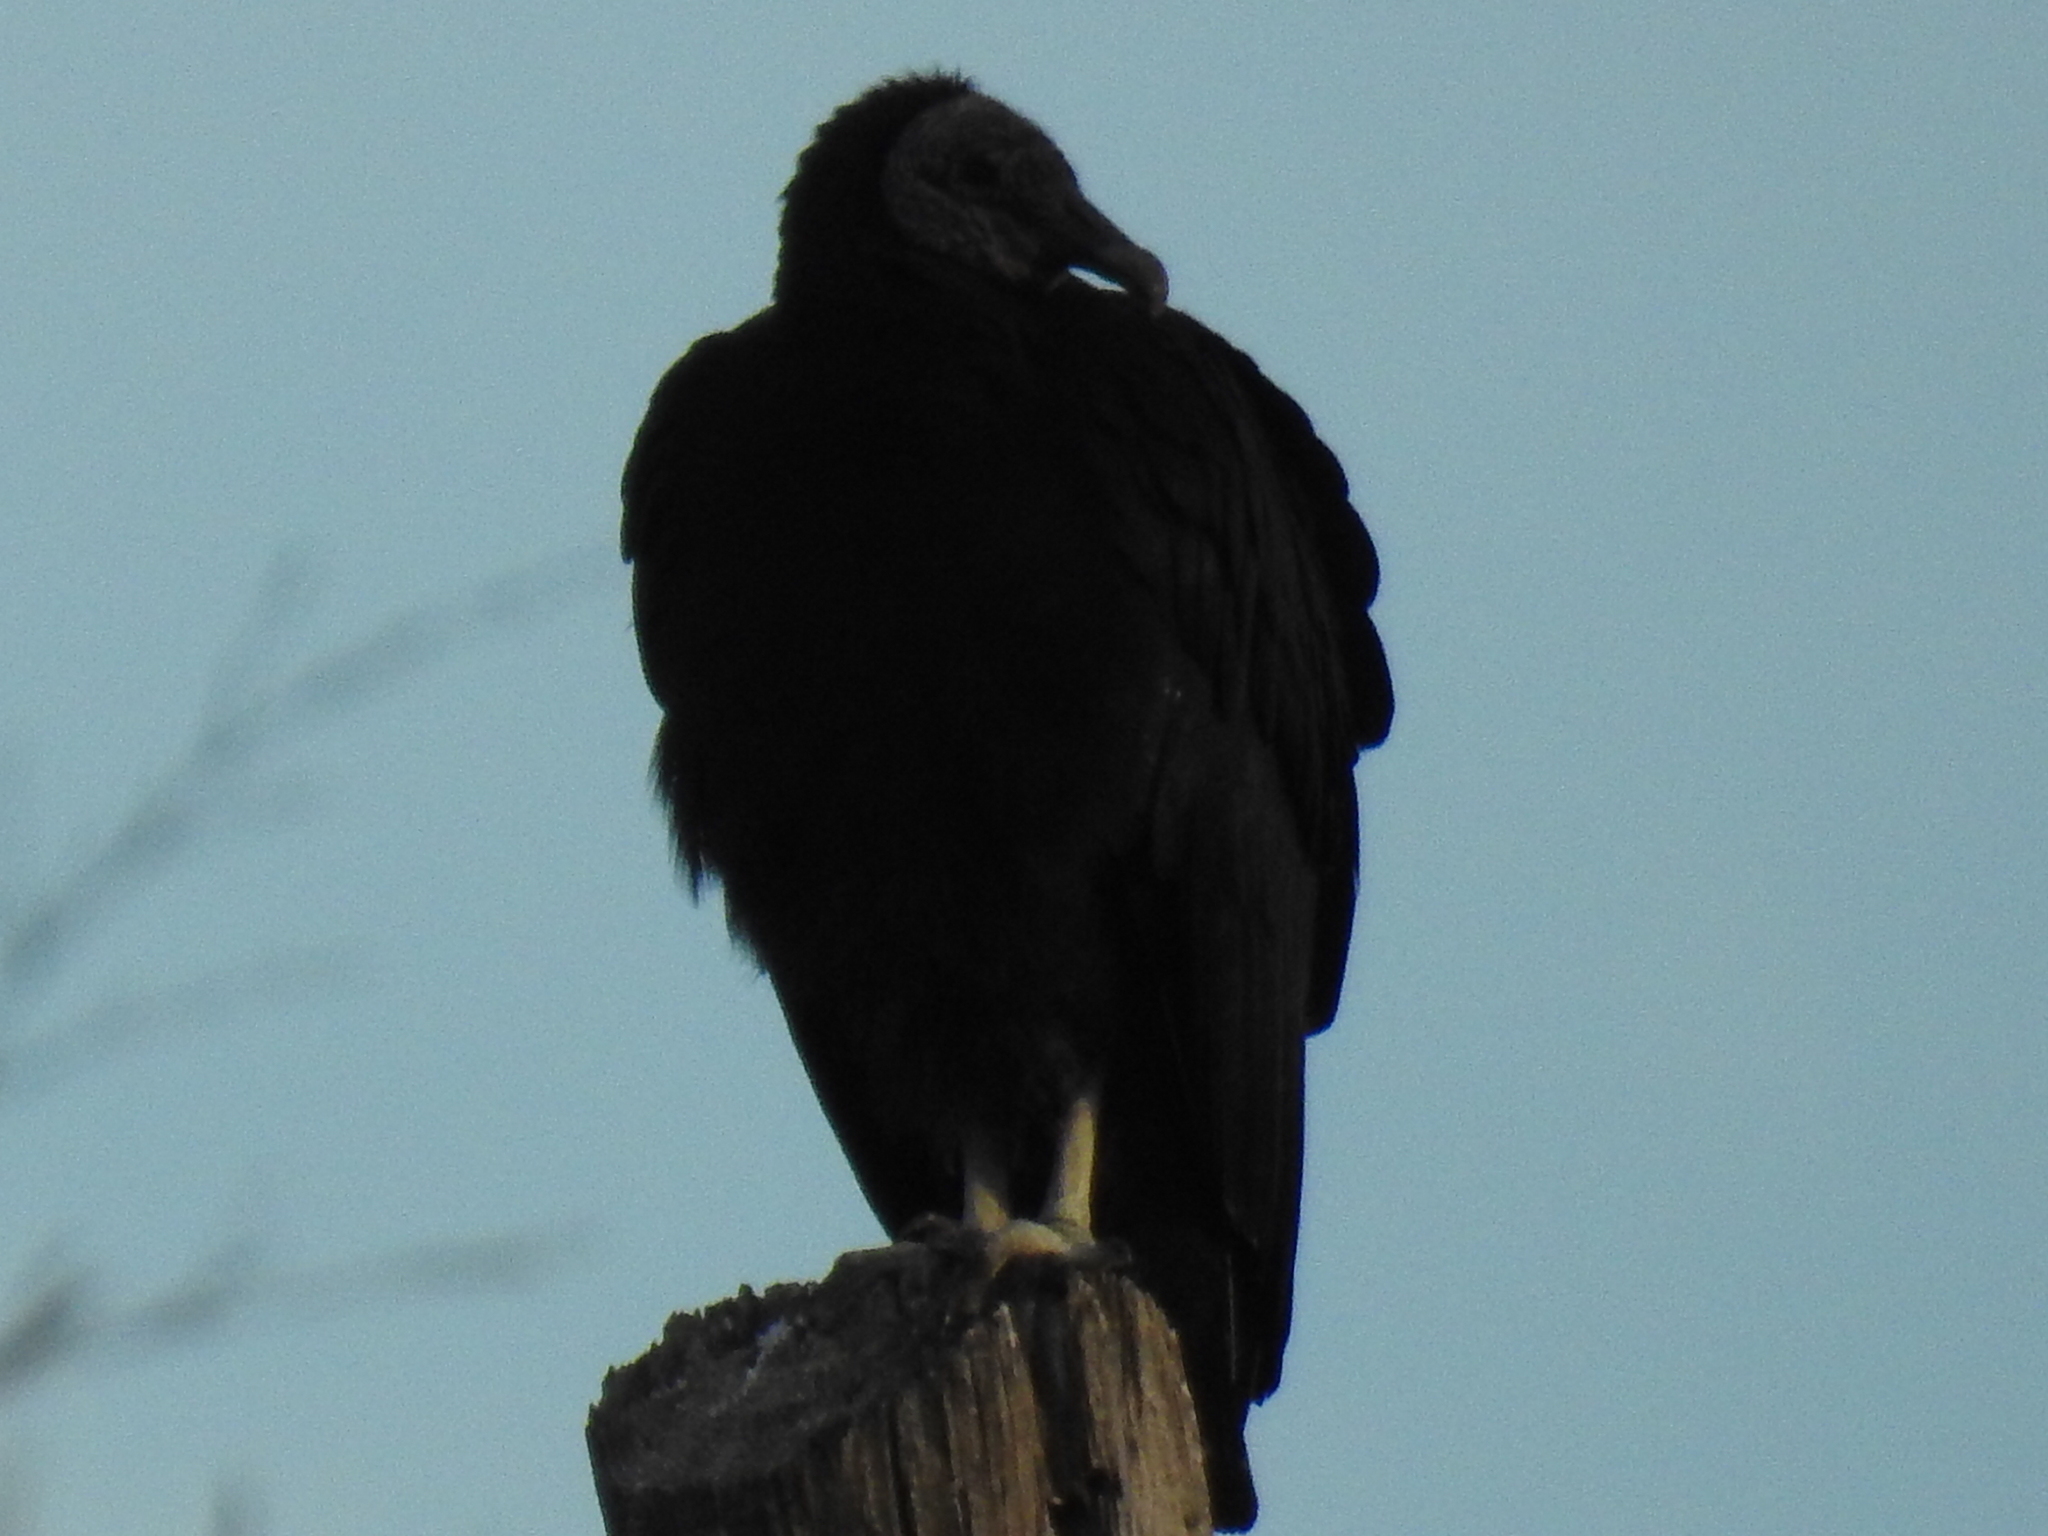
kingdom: Animalia
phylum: Chordata
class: Aves
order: Accipitriformes
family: Cathartidae
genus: Coragyps
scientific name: Coragyps atratus
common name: Black vulture
